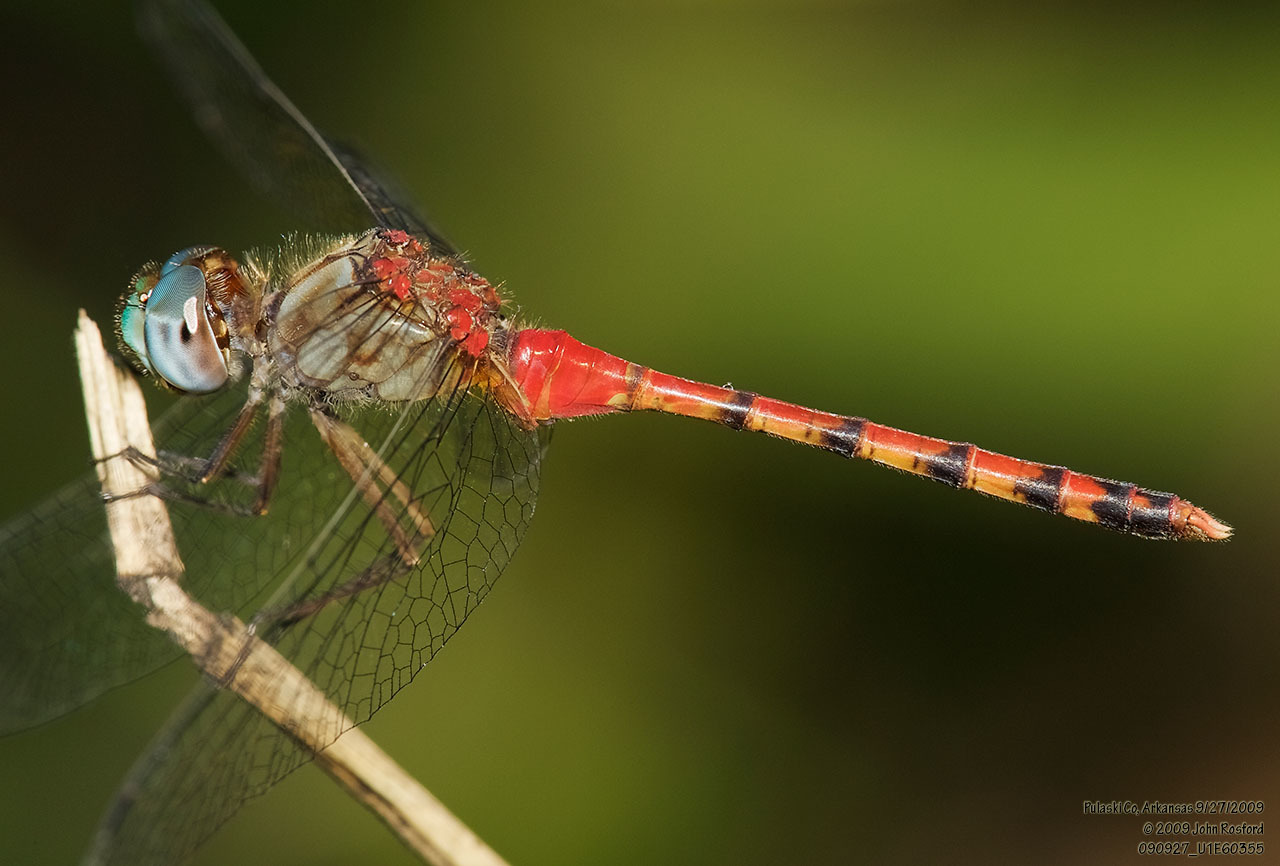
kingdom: Animalia
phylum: Arthropoda
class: Insecta
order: Odonata
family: Libellulidae
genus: Sympetrum
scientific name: Sympetrum ambiguum
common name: Blue-faced meadowhawk
